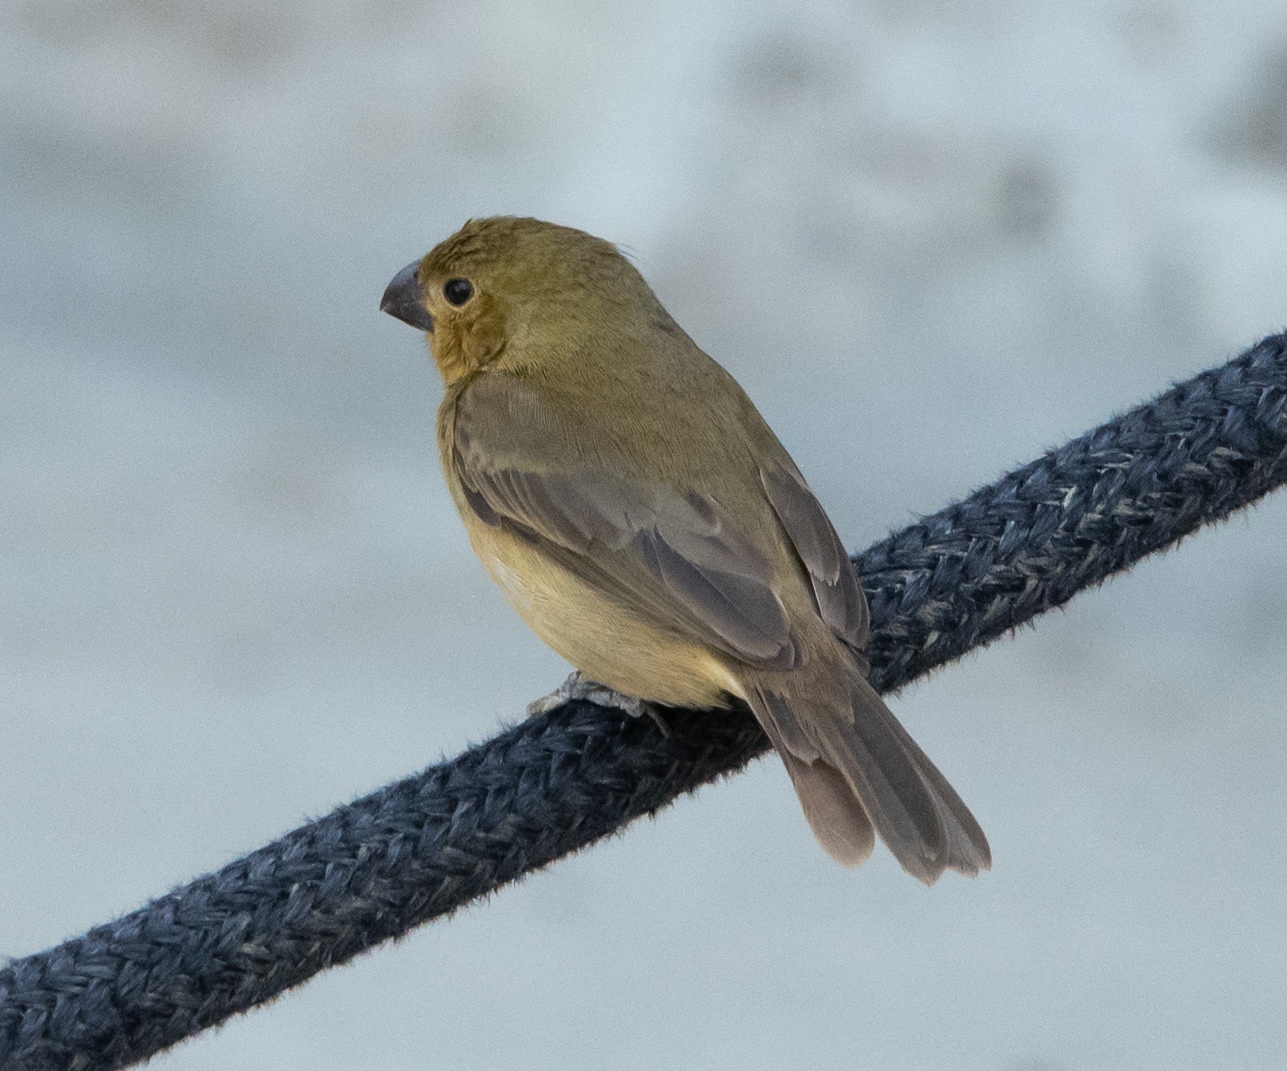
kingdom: Animalia
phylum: Chordata
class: Aves
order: Passeriformes
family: Thraupidae
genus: Sporophila
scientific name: Sporophila nigricollis
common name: Yellow-bellied seedeater
